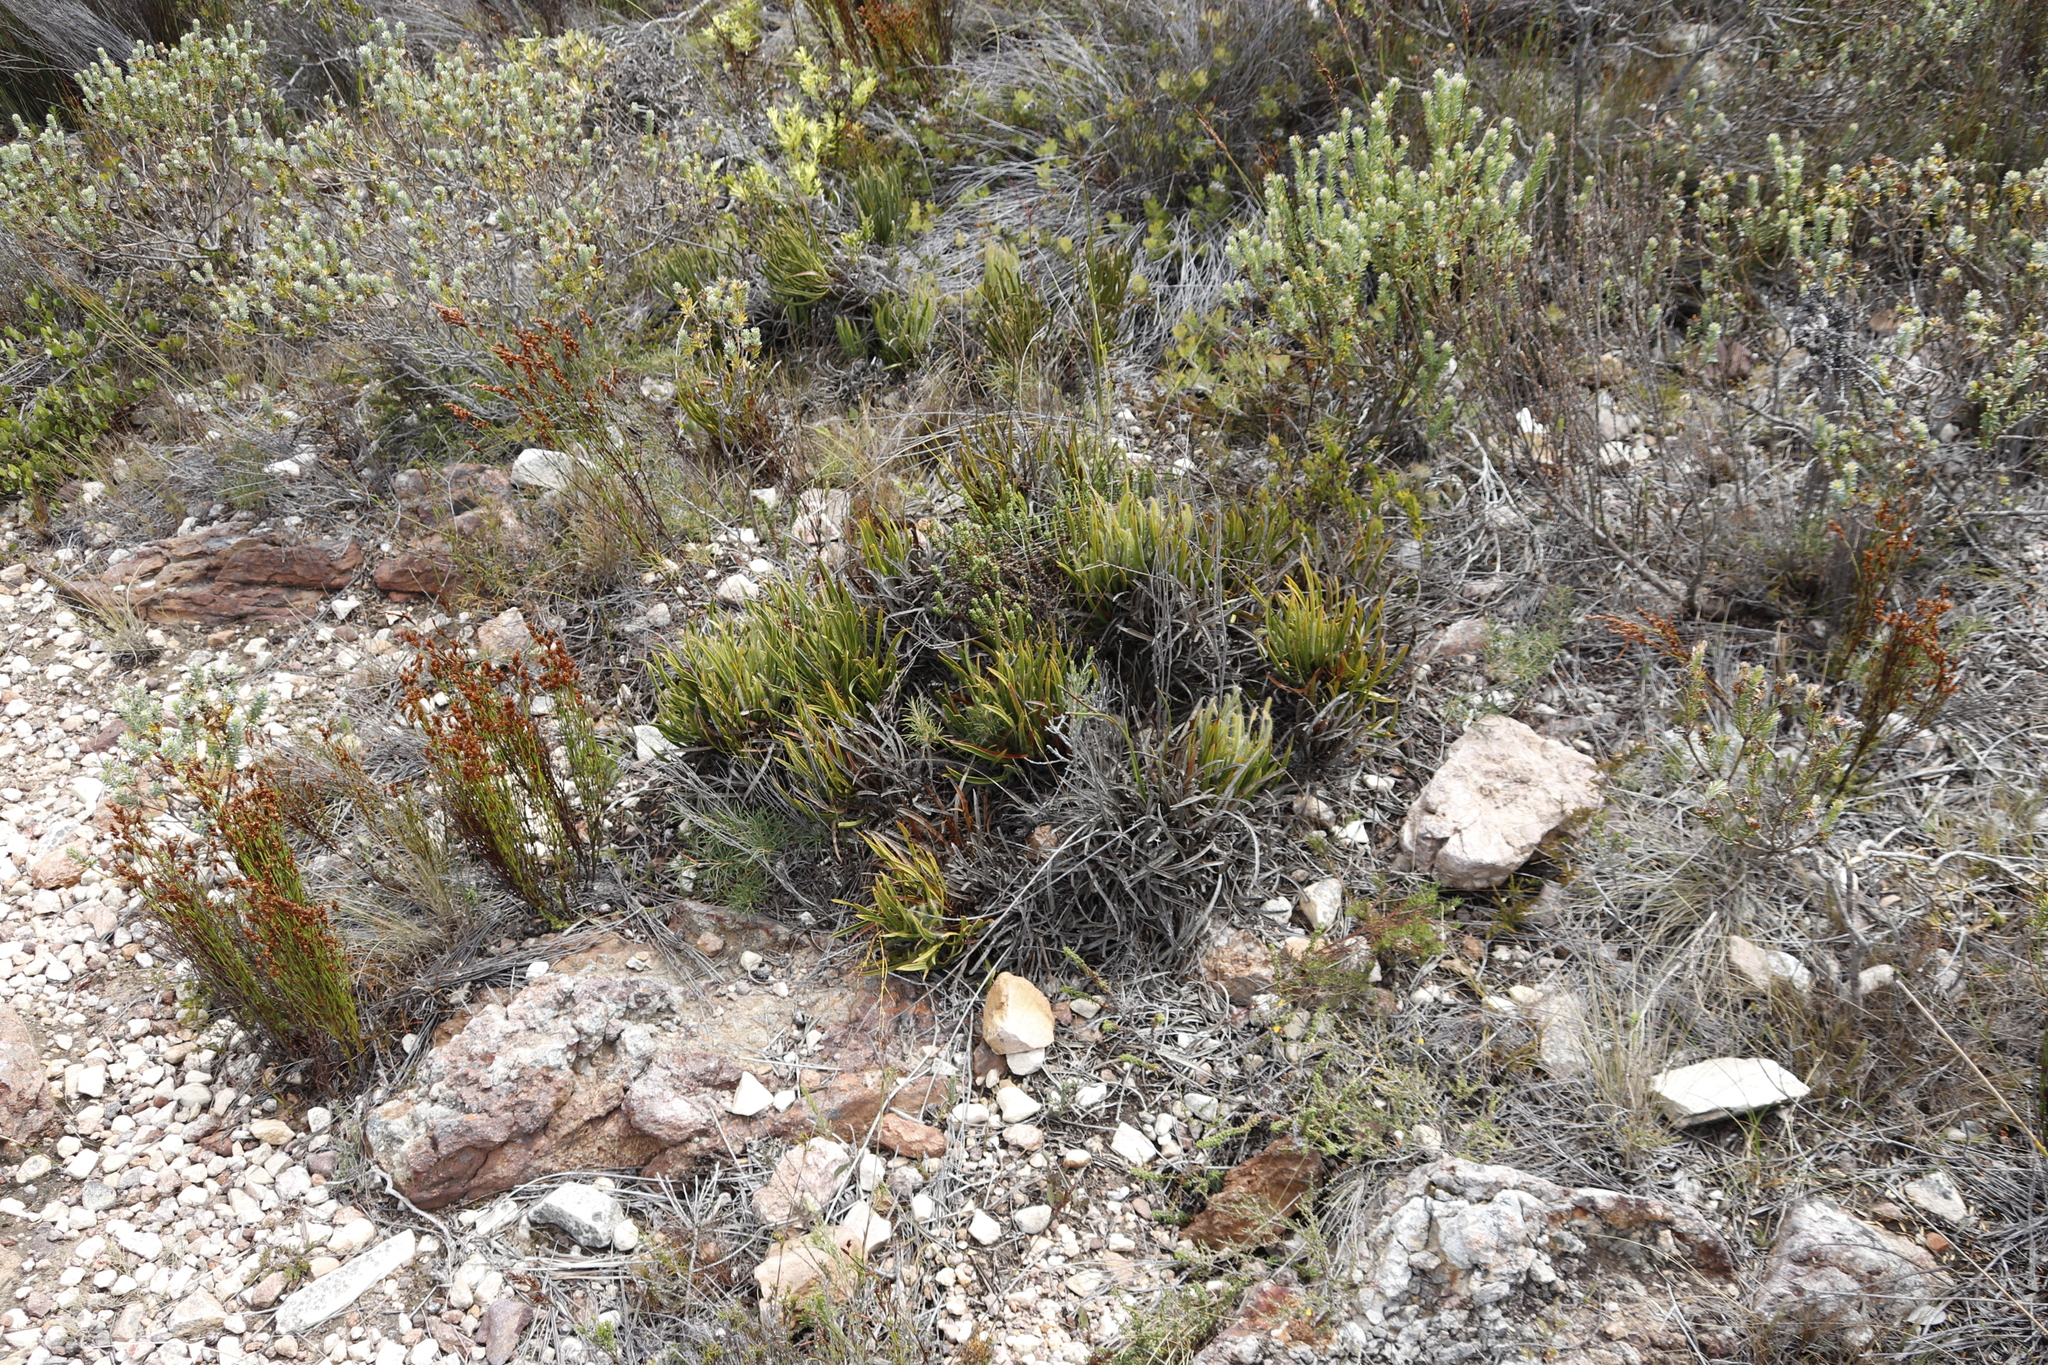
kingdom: Plantae
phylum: Tracheophyta
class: Magnoliopsida
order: Proteales
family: Proteaceae
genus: Protea
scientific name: Protea denticulata
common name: Tooth-leaf sugarbush
